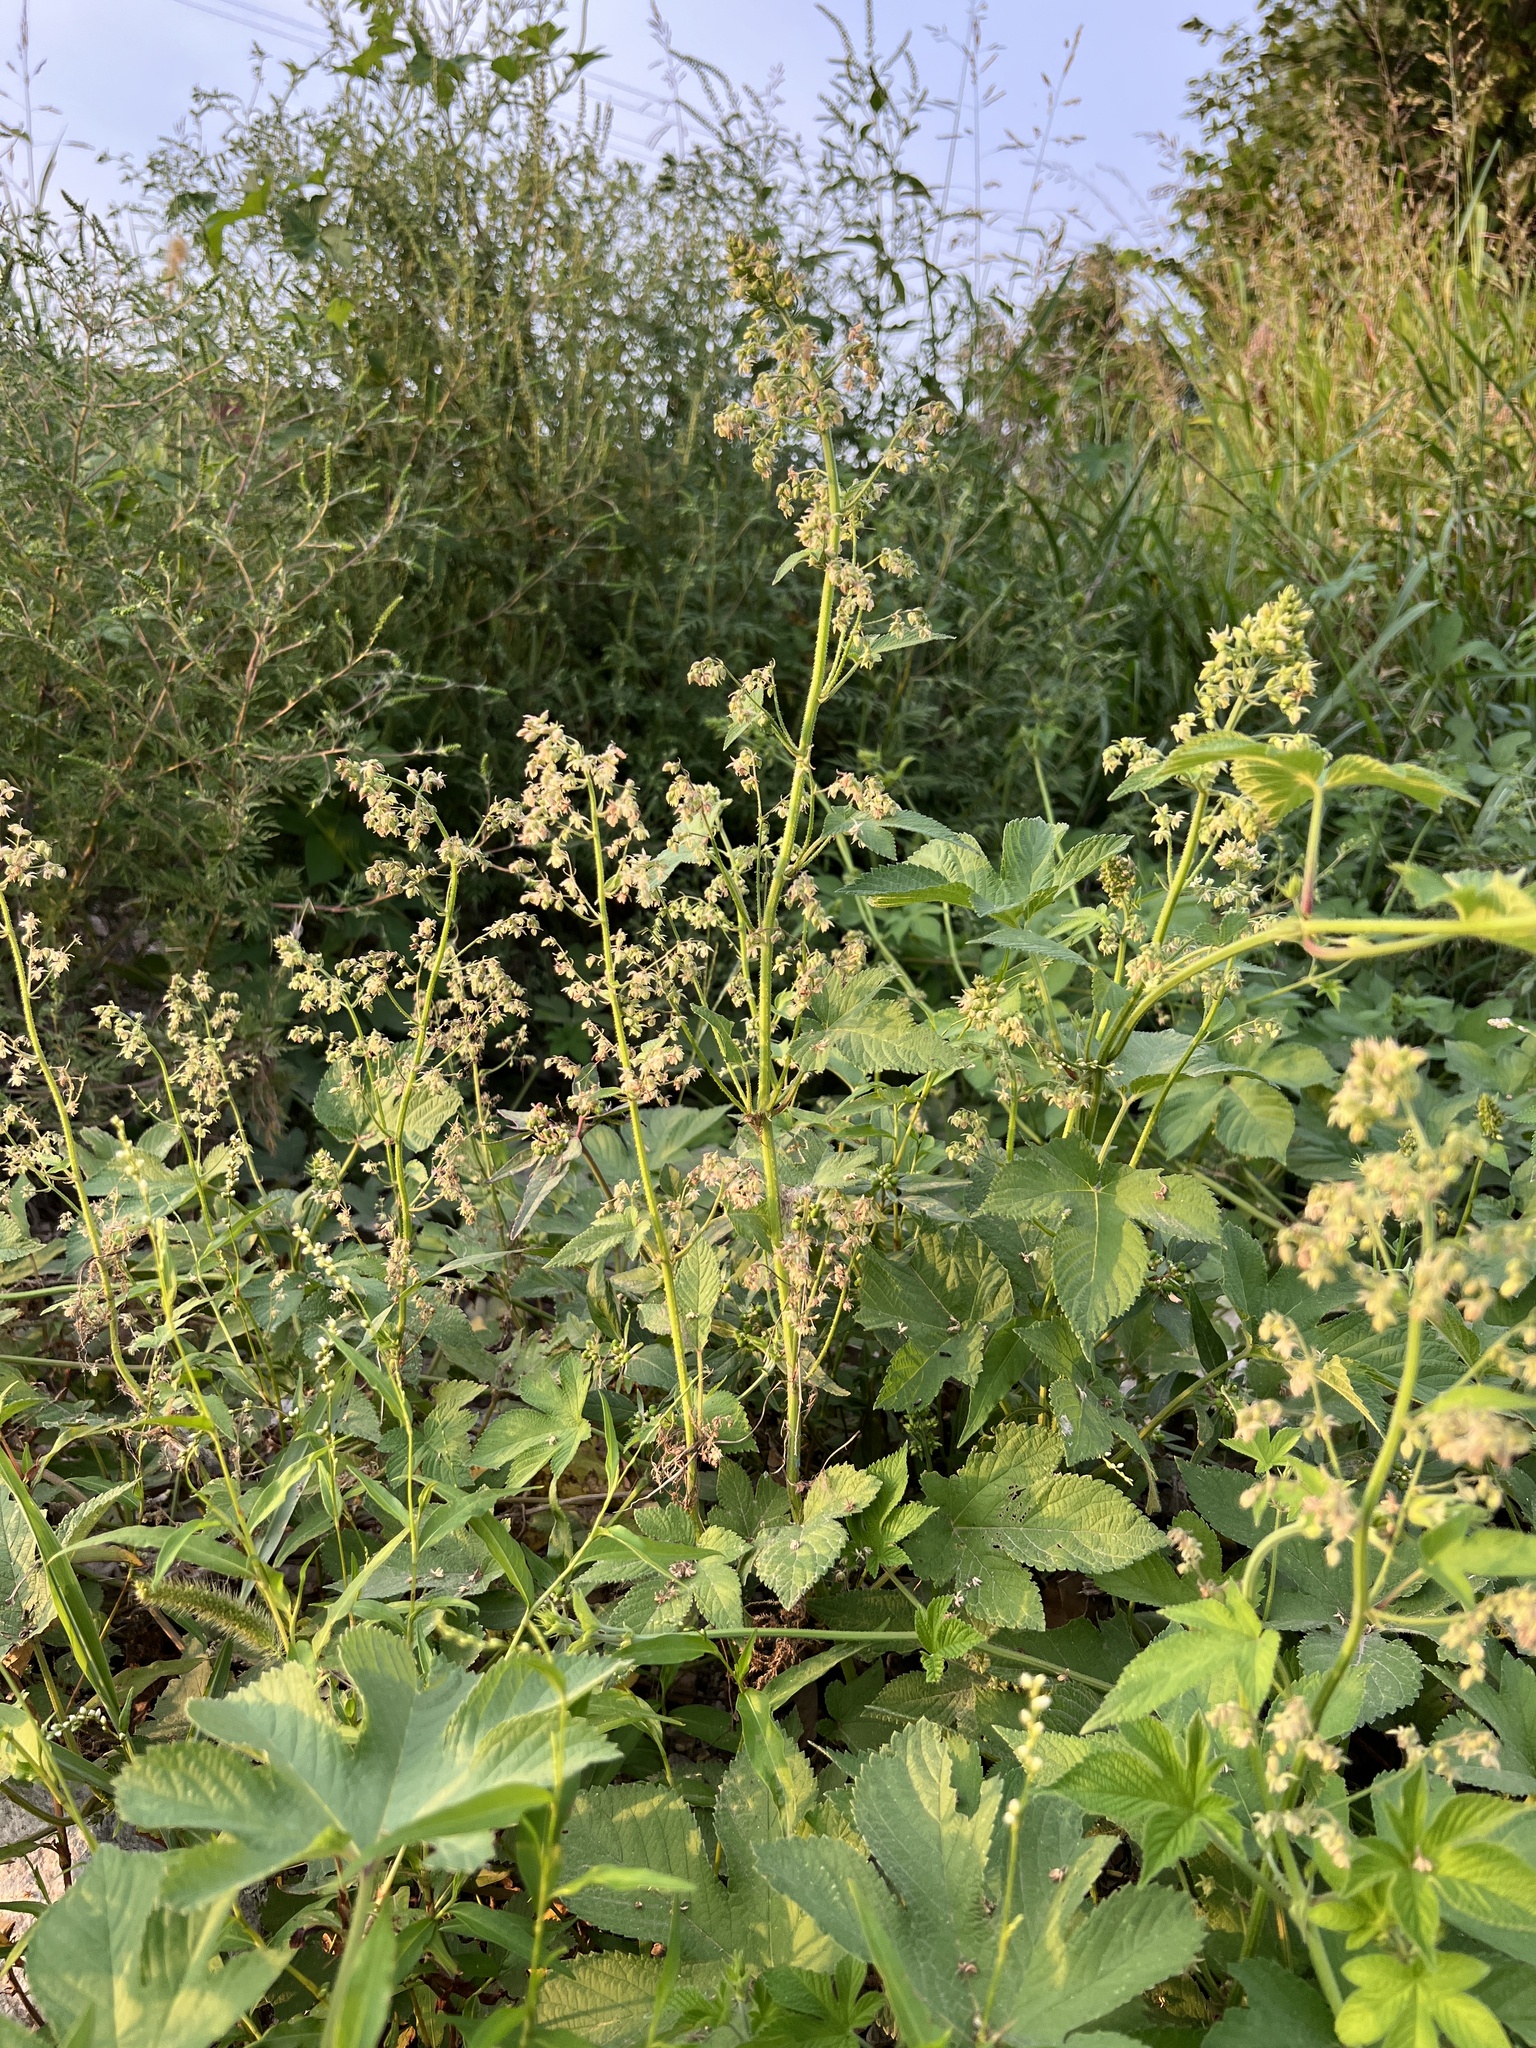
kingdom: Plantae
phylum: Tracheophyta
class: Magnoliopsida
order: Rosales
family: Cannabaceae
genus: Humulus
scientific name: Humulus scandens
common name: Japanese hop
